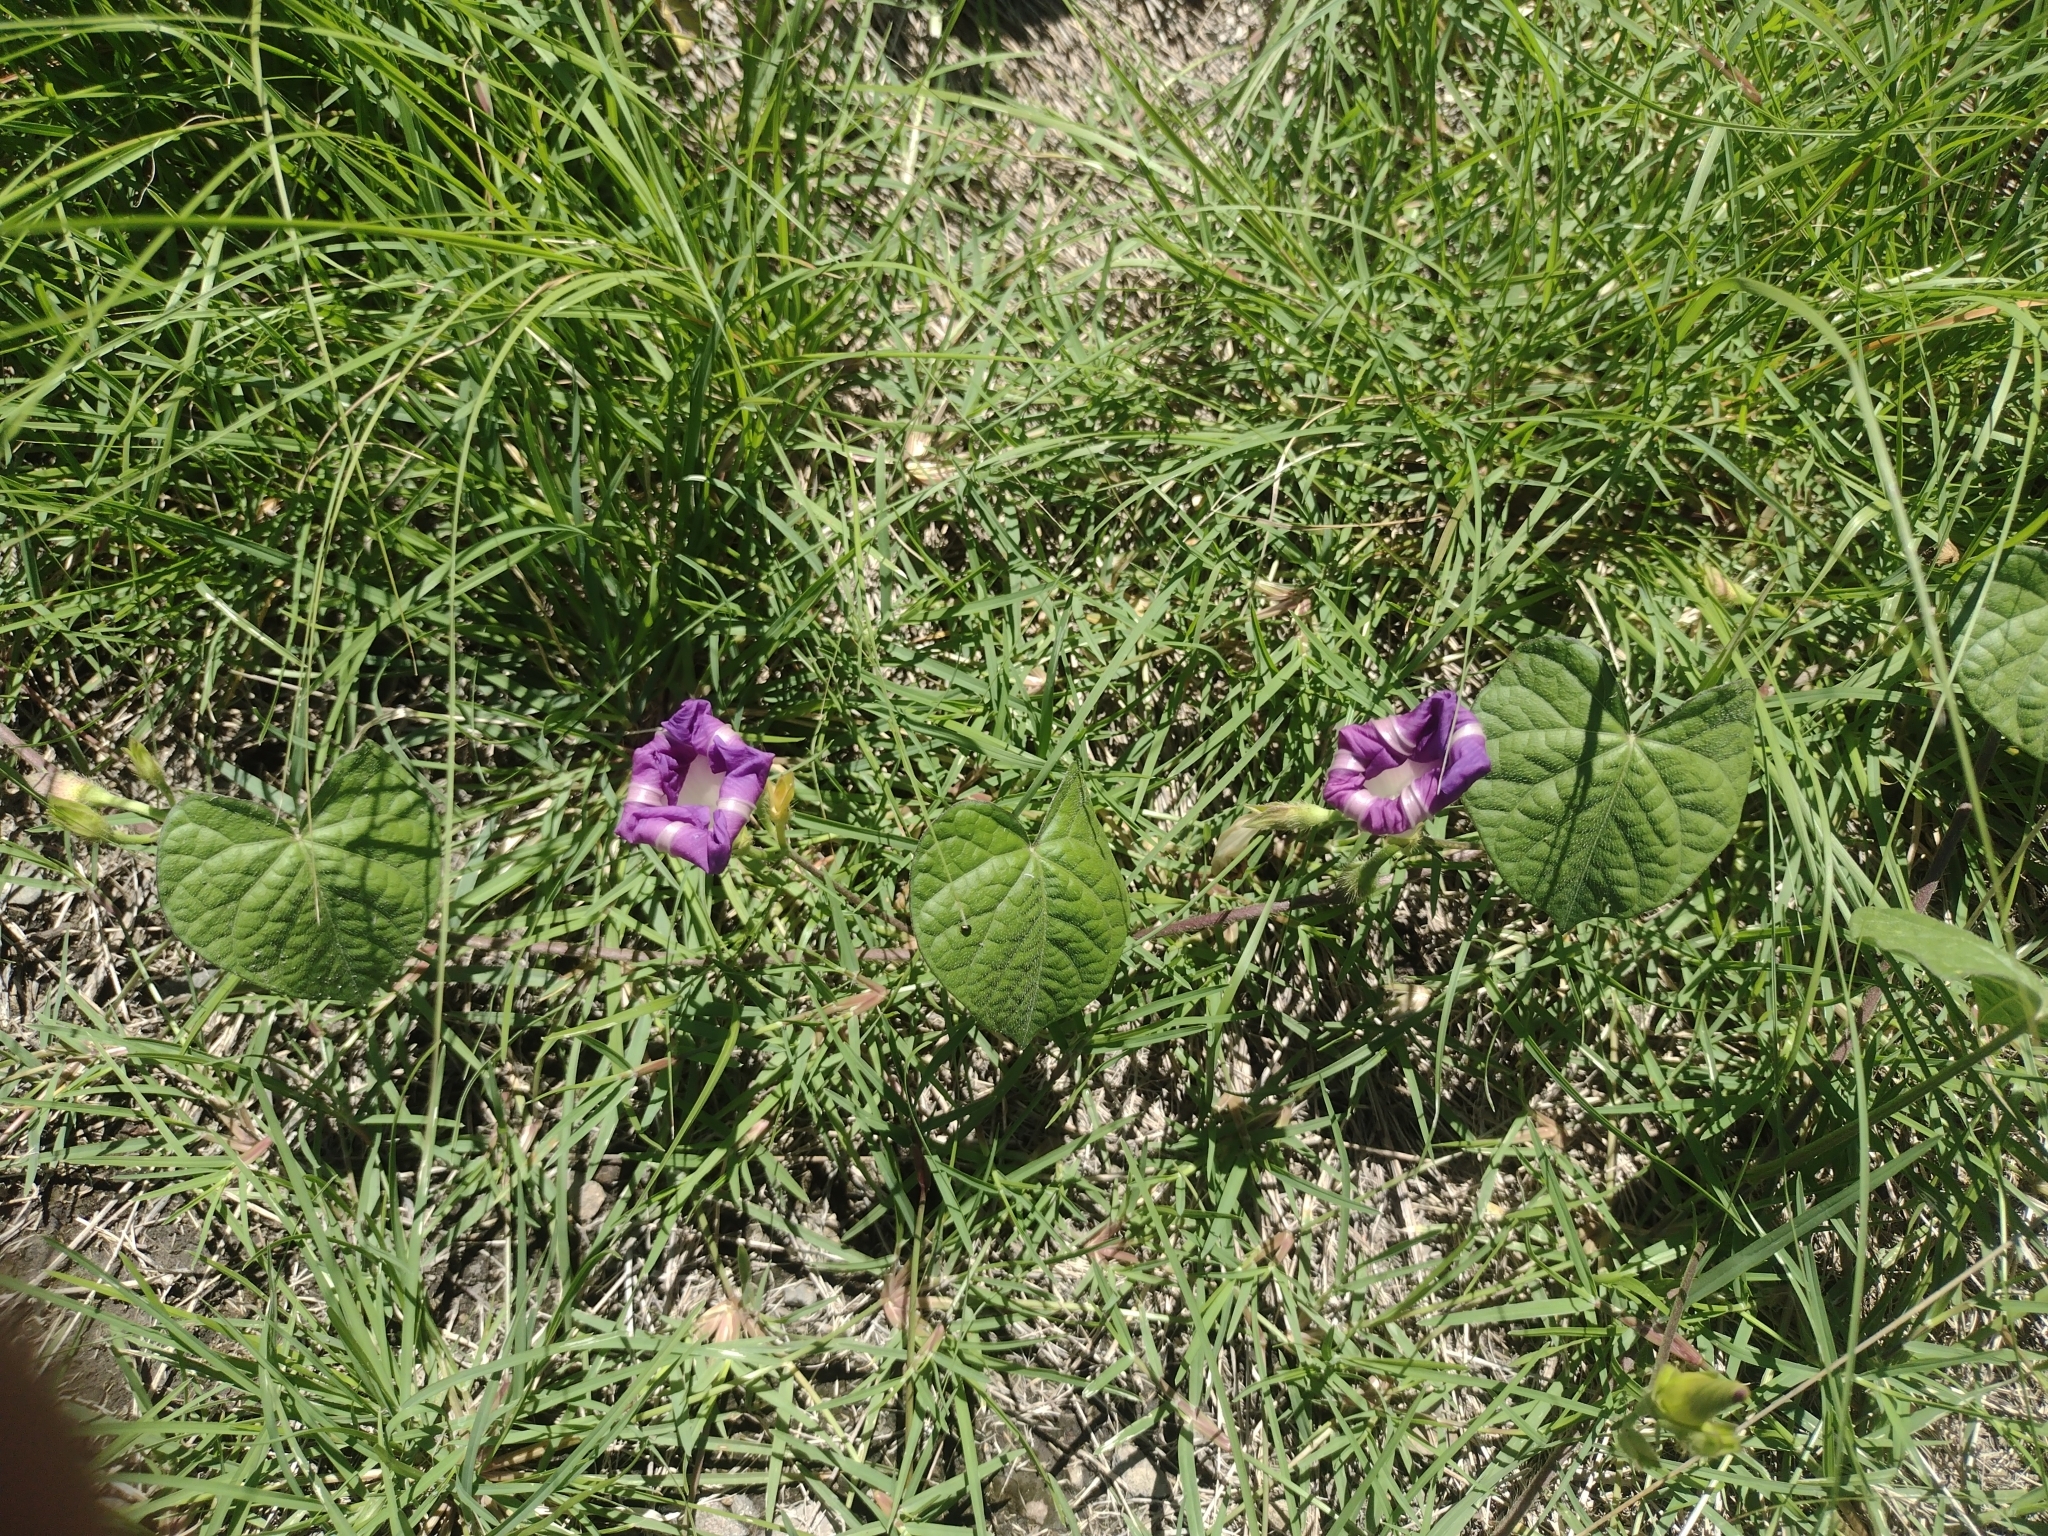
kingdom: Plantae
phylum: Tracheophyta
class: Magnoliopsida
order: Solanales
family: Convolvulaceae
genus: Ipomoea
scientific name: Ipomoea purpurea
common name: Common morning-glory
